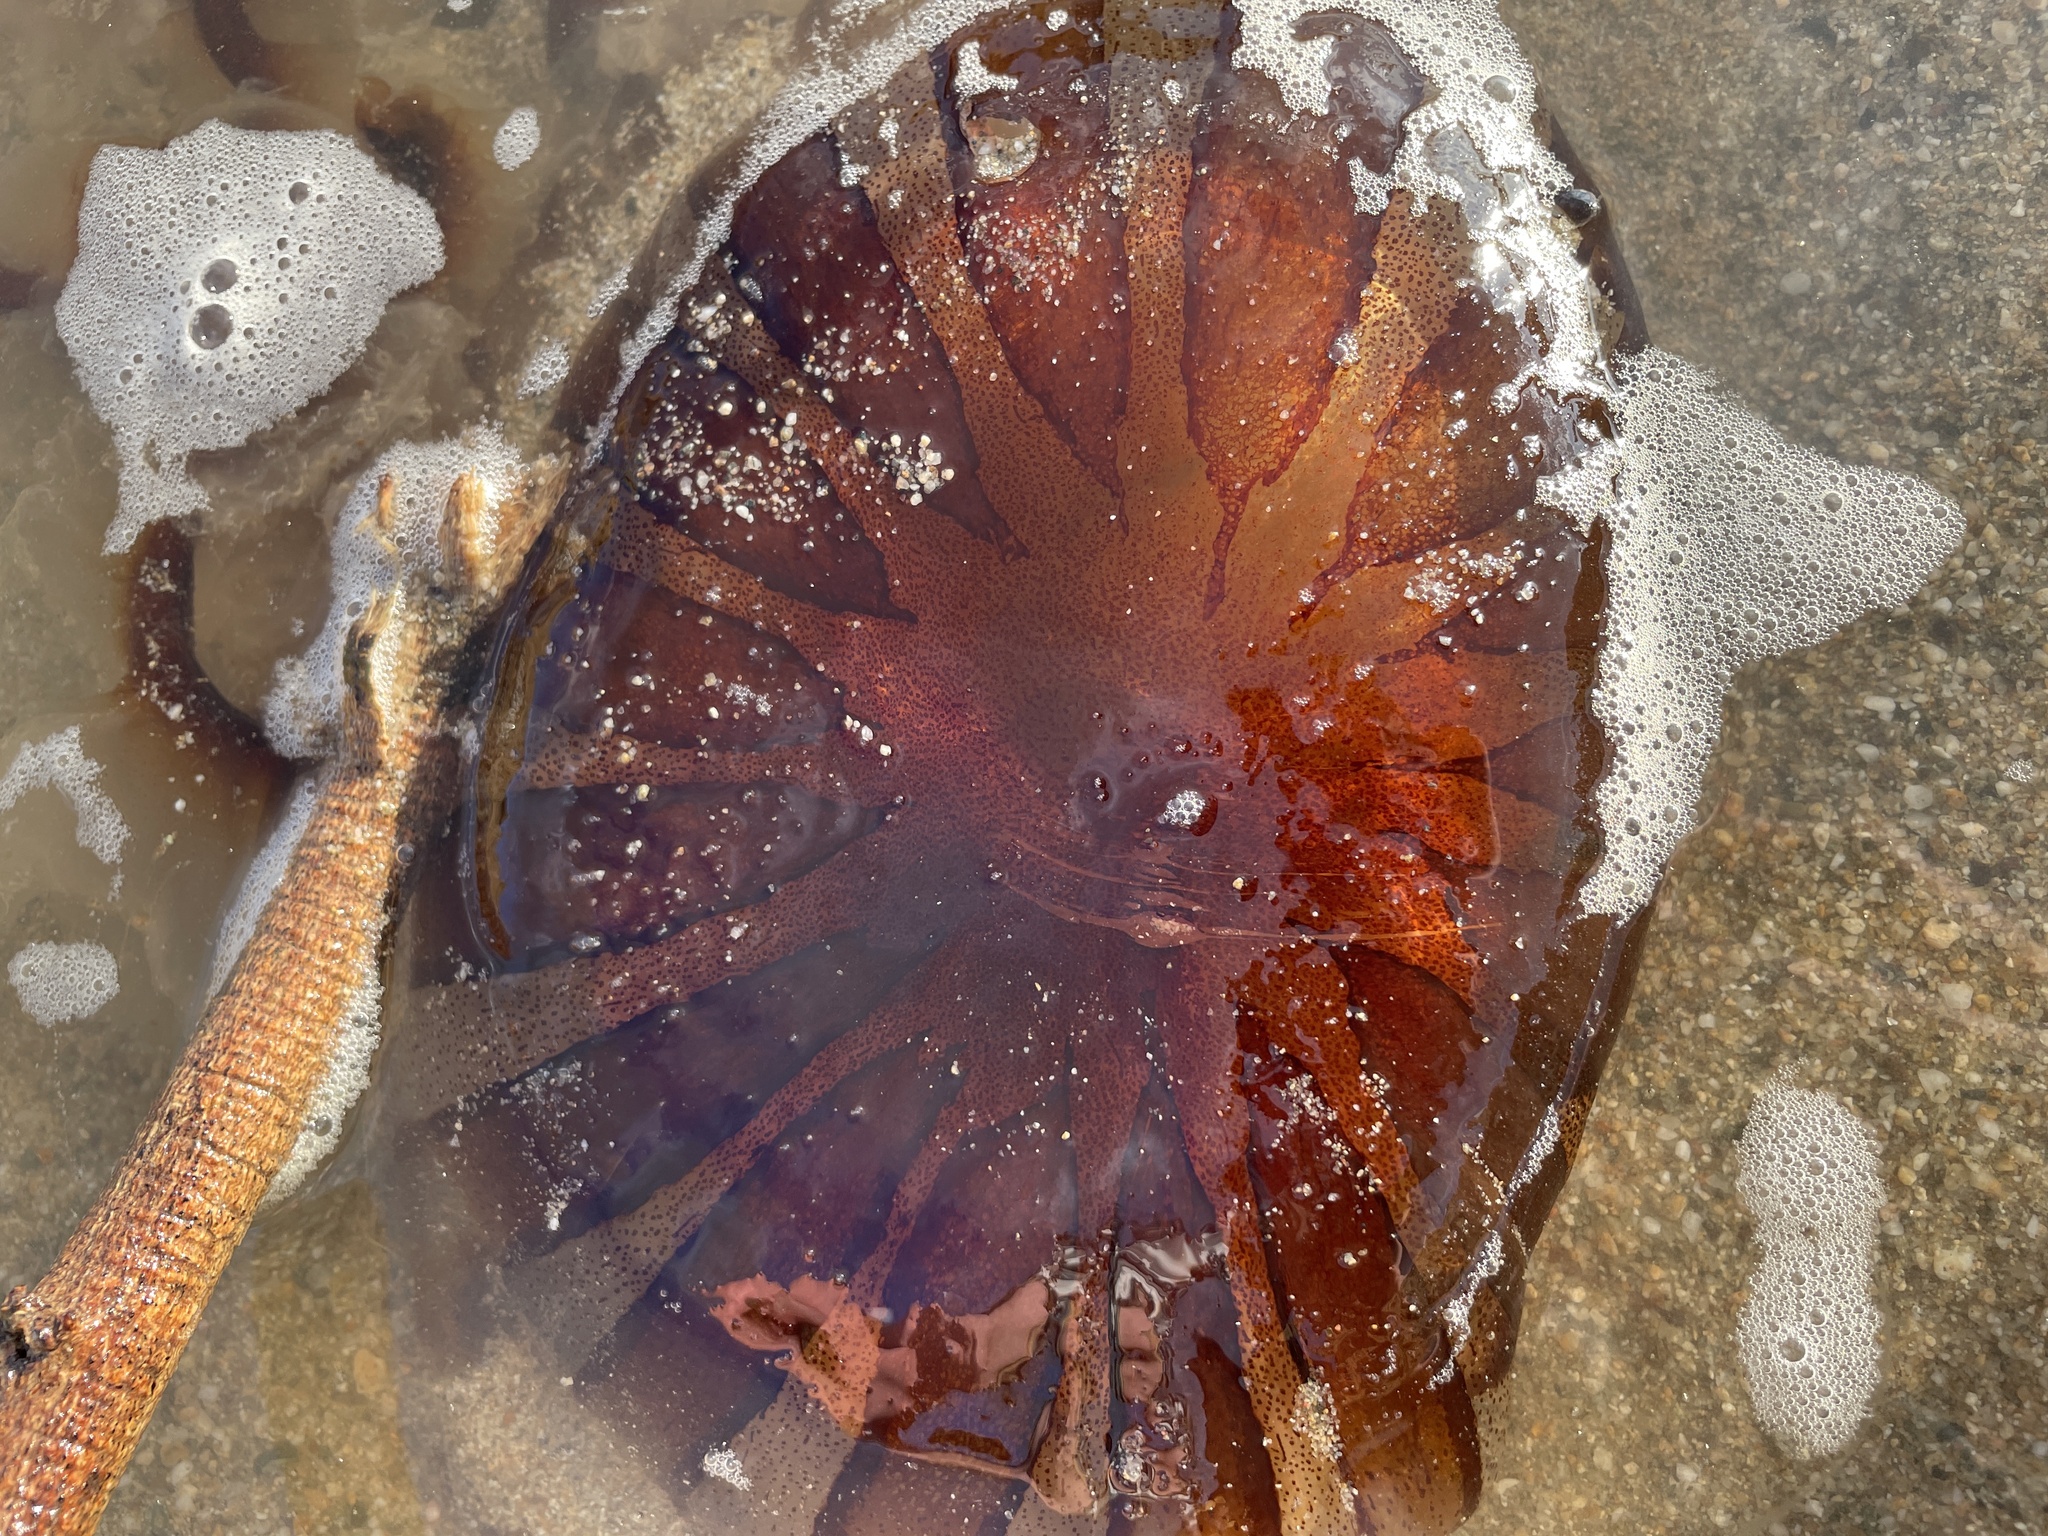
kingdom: Animalia
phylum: Cnidaria
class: Scyphozoa
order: Semaeostomeae
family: Pelagiidae
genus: Chrysaora
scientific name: Chrysaora hysoscella
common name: Compass jellyfish
